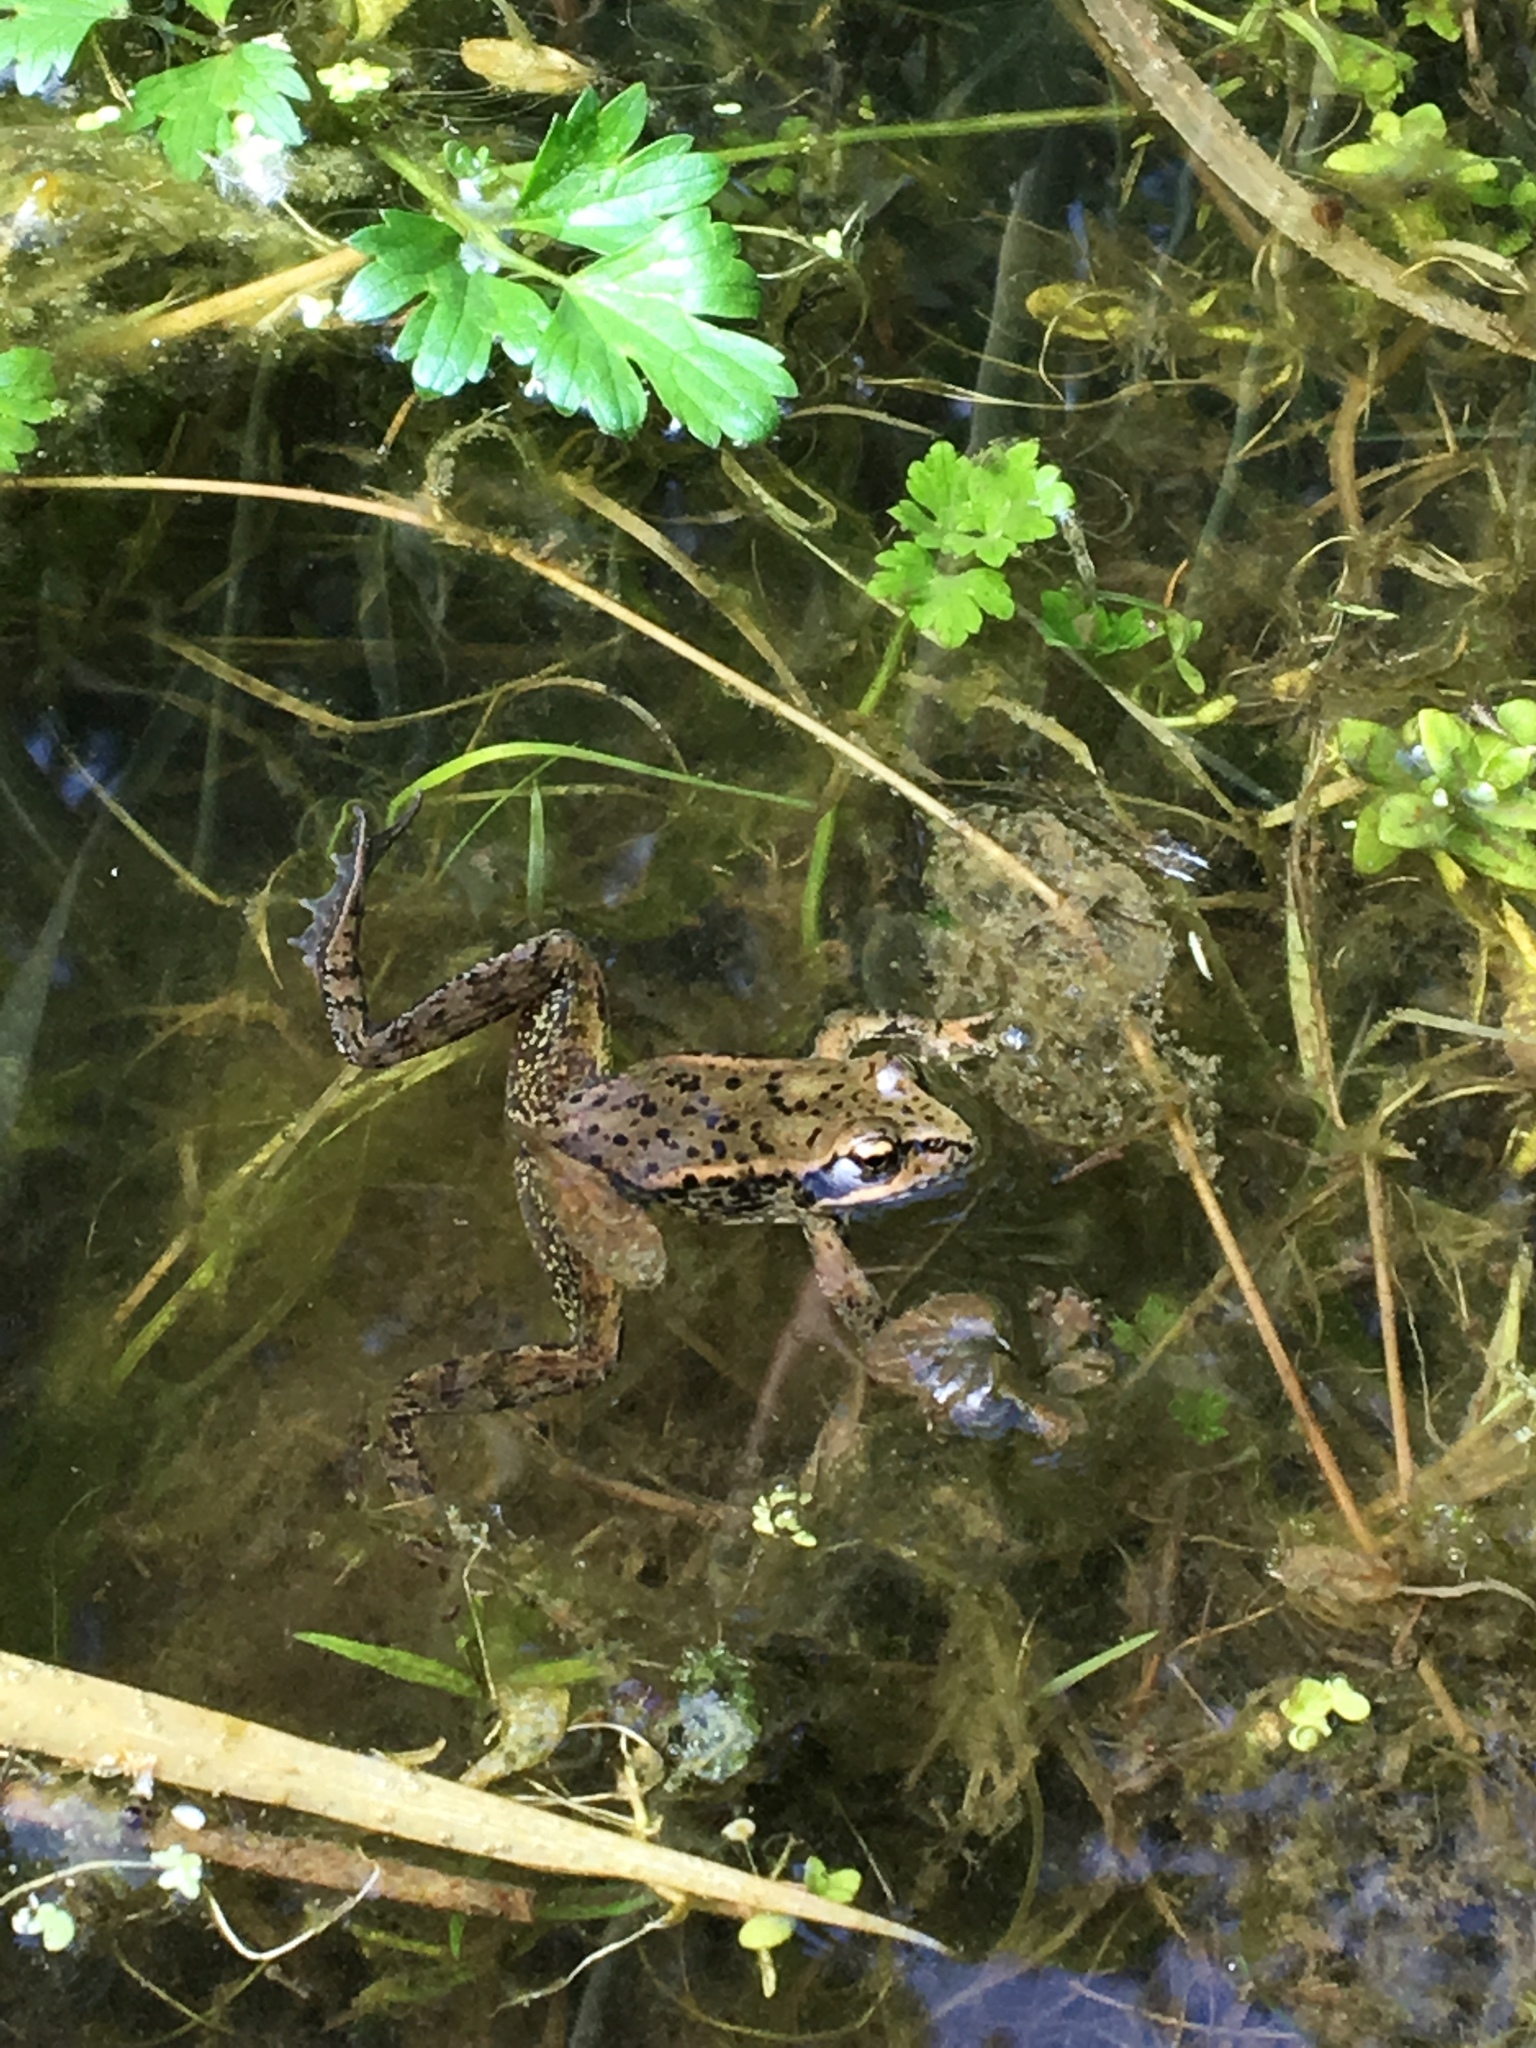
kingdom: Animalia
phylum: Chordata
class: Amphibia
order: Anura
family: Ranidae
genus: Rana
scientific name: Rana aurora
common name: Red-legged frog
